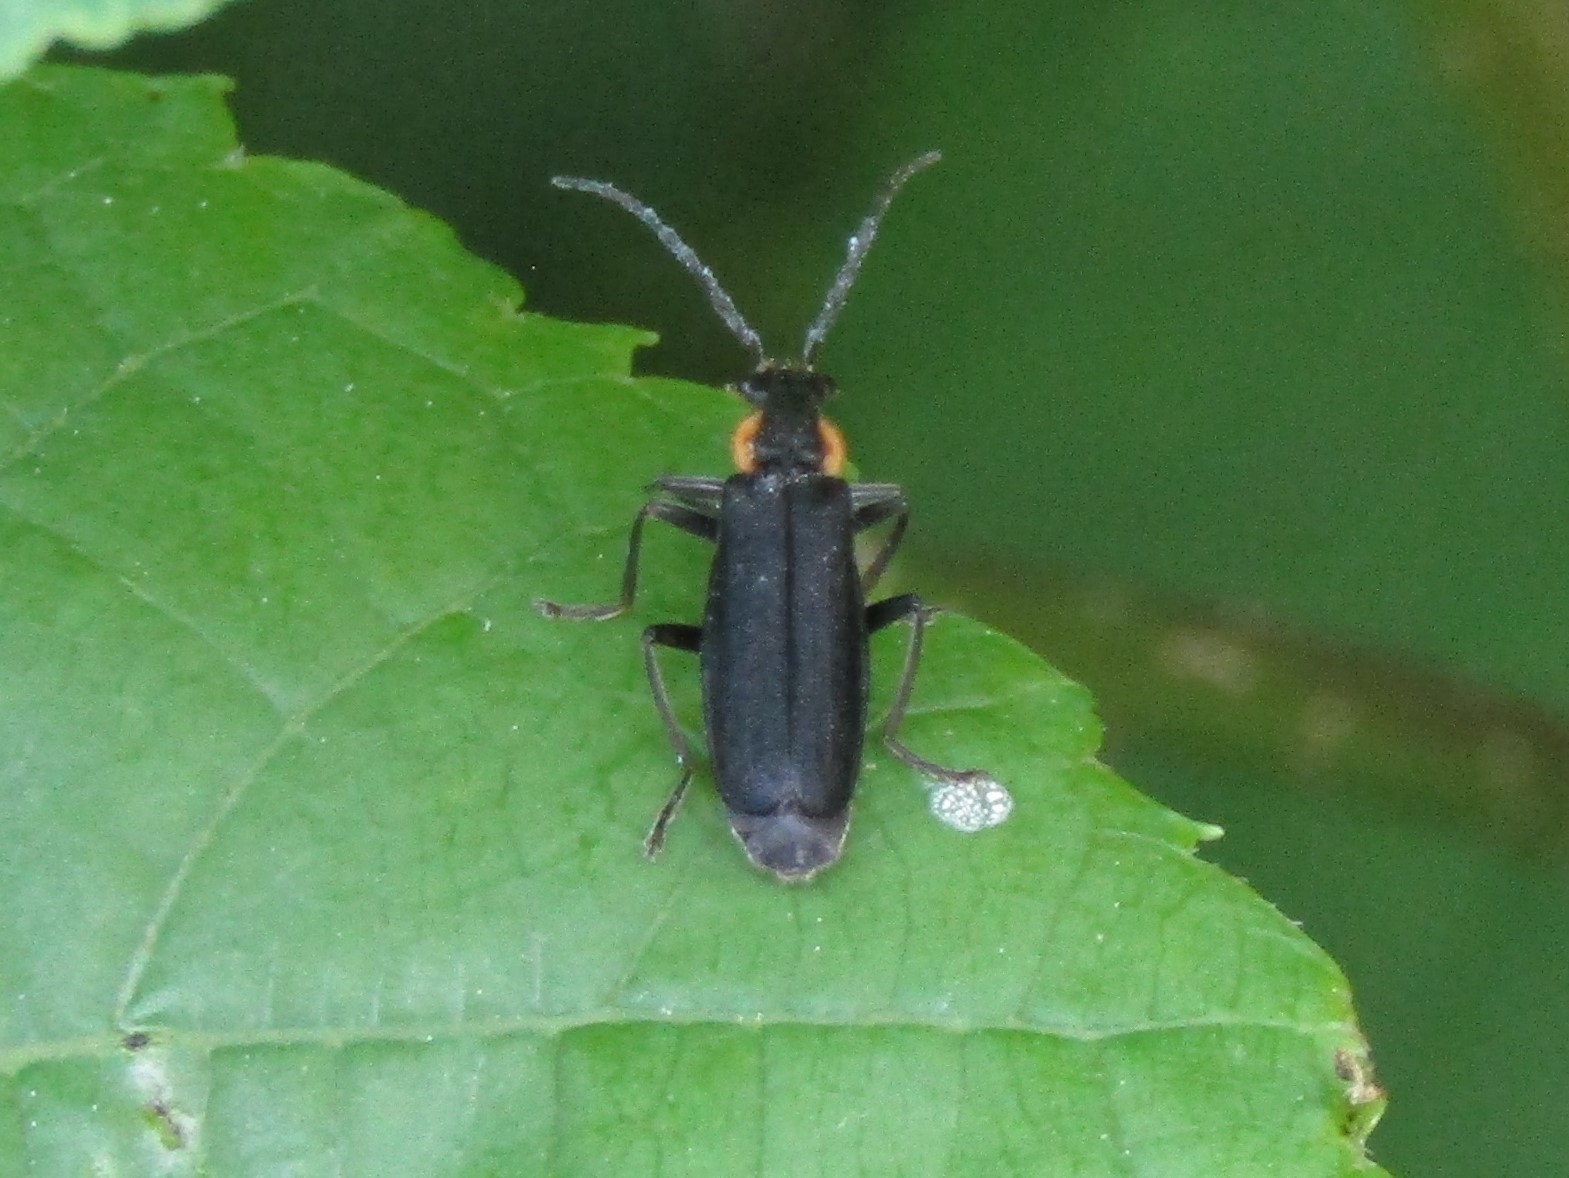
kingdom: Animalia
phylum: Arthropoda
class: Insecta
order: Coleoptera
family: Cantharidae
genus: Podabrus
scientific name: Podabrus rugosulus
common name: Wrinkled soldier beetle
